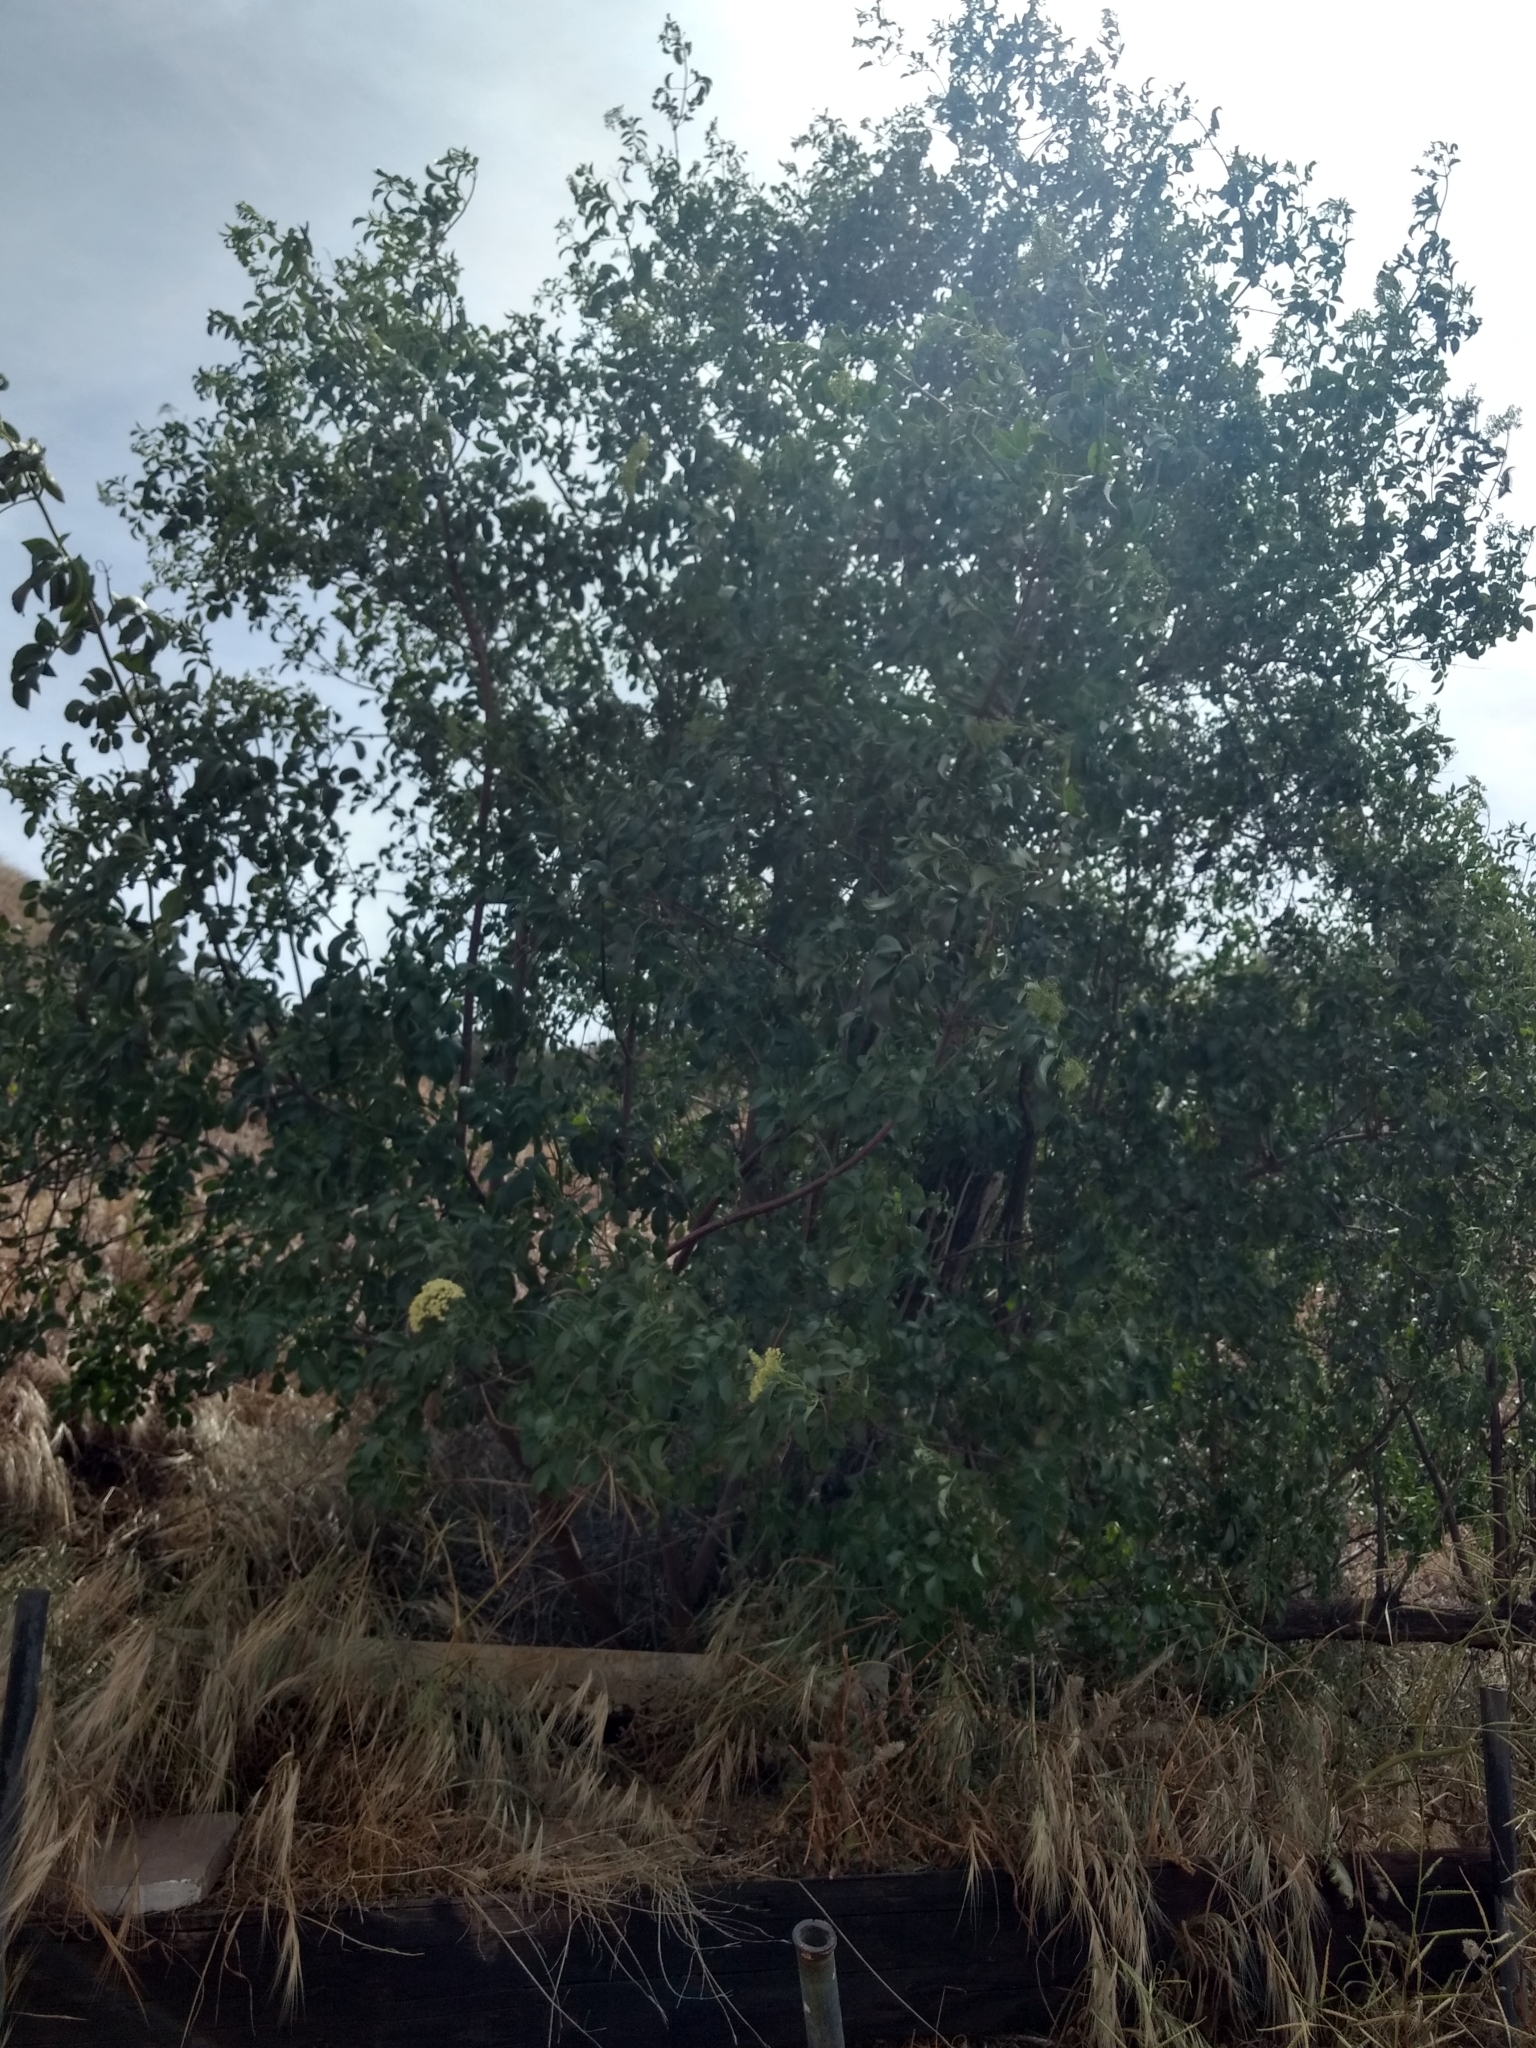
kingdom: Plantae
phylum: Tracheophyta
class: Magnoliopsida
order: Dipsacales
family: Viburnaceae
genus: Sambucus
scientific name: Sambucus cerulea
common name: Blue elder
